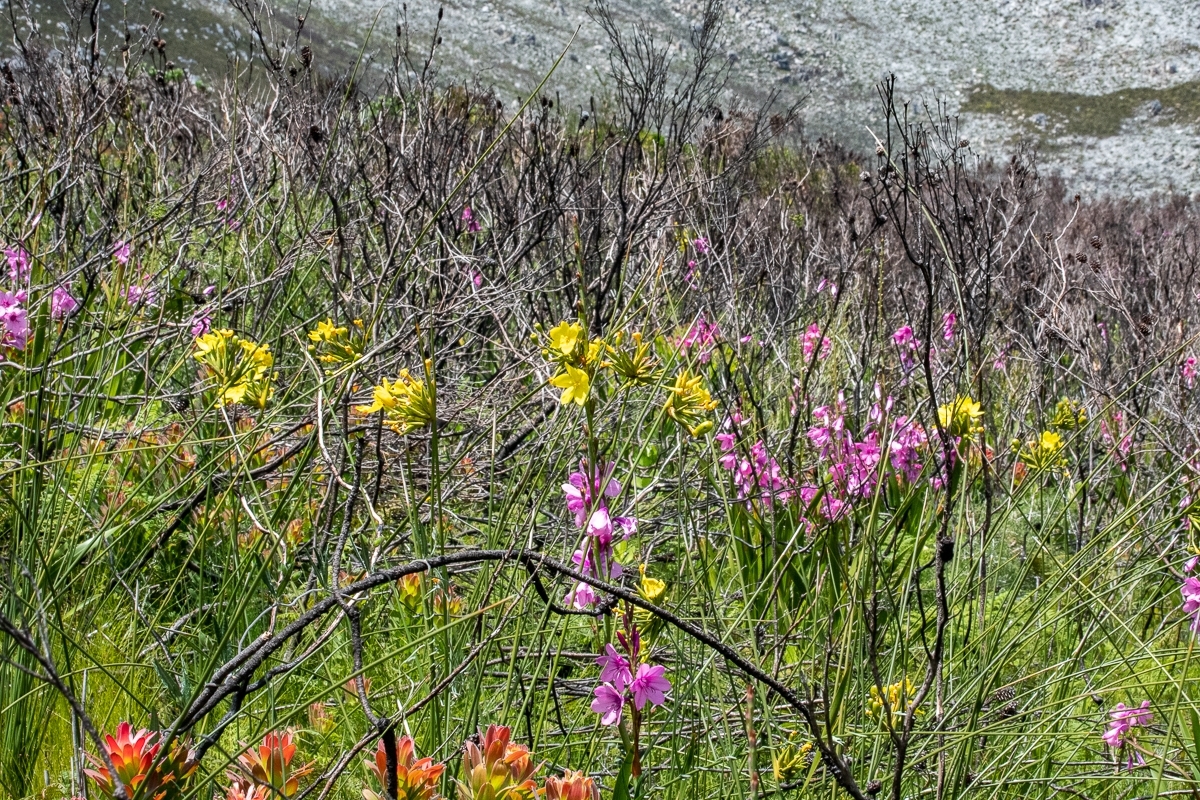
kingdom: Plantae
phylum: Tracheophyta
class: Liliopsida
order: Asparagales
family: Iridaceae
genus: Bobartia
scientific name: Bobartia indica
